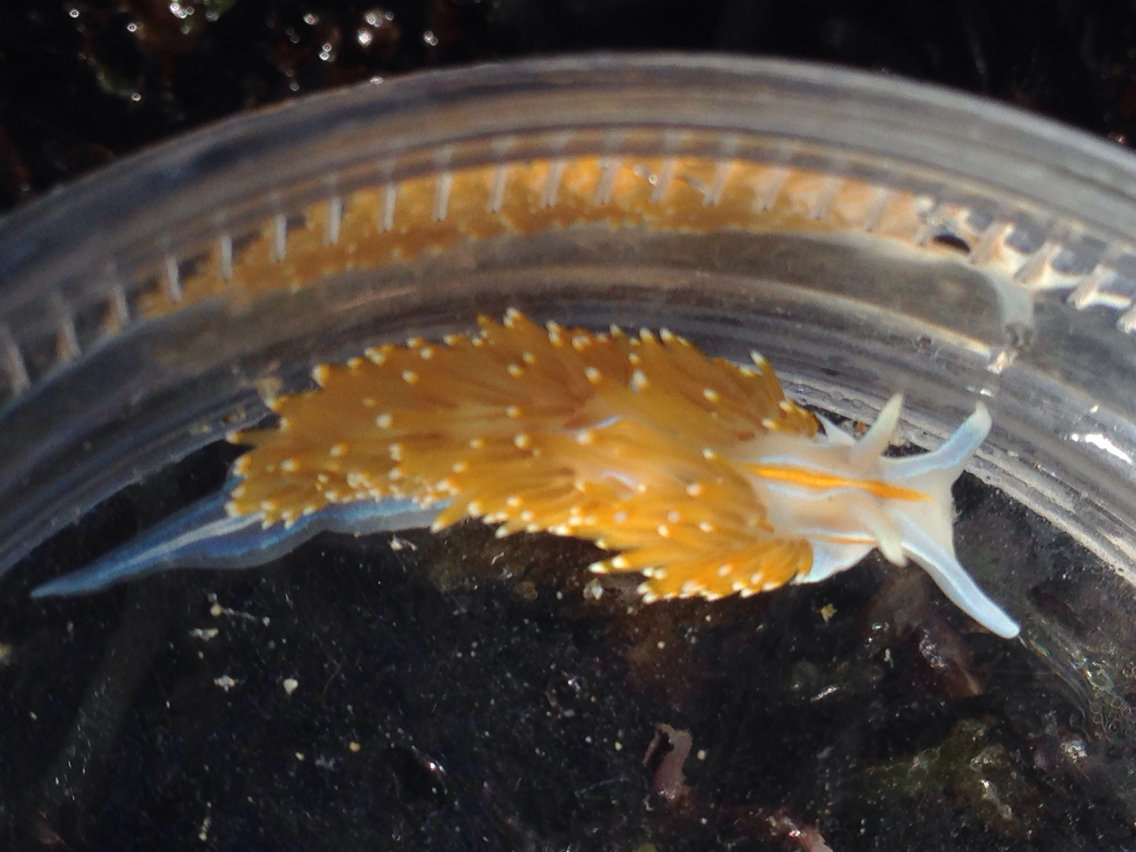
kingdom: Animalia
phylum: Mollusca
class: Gastropoda
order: Nudibranchia
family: Myrrhinidae
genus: Hermissenda
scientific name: Hermissenda opalescens
